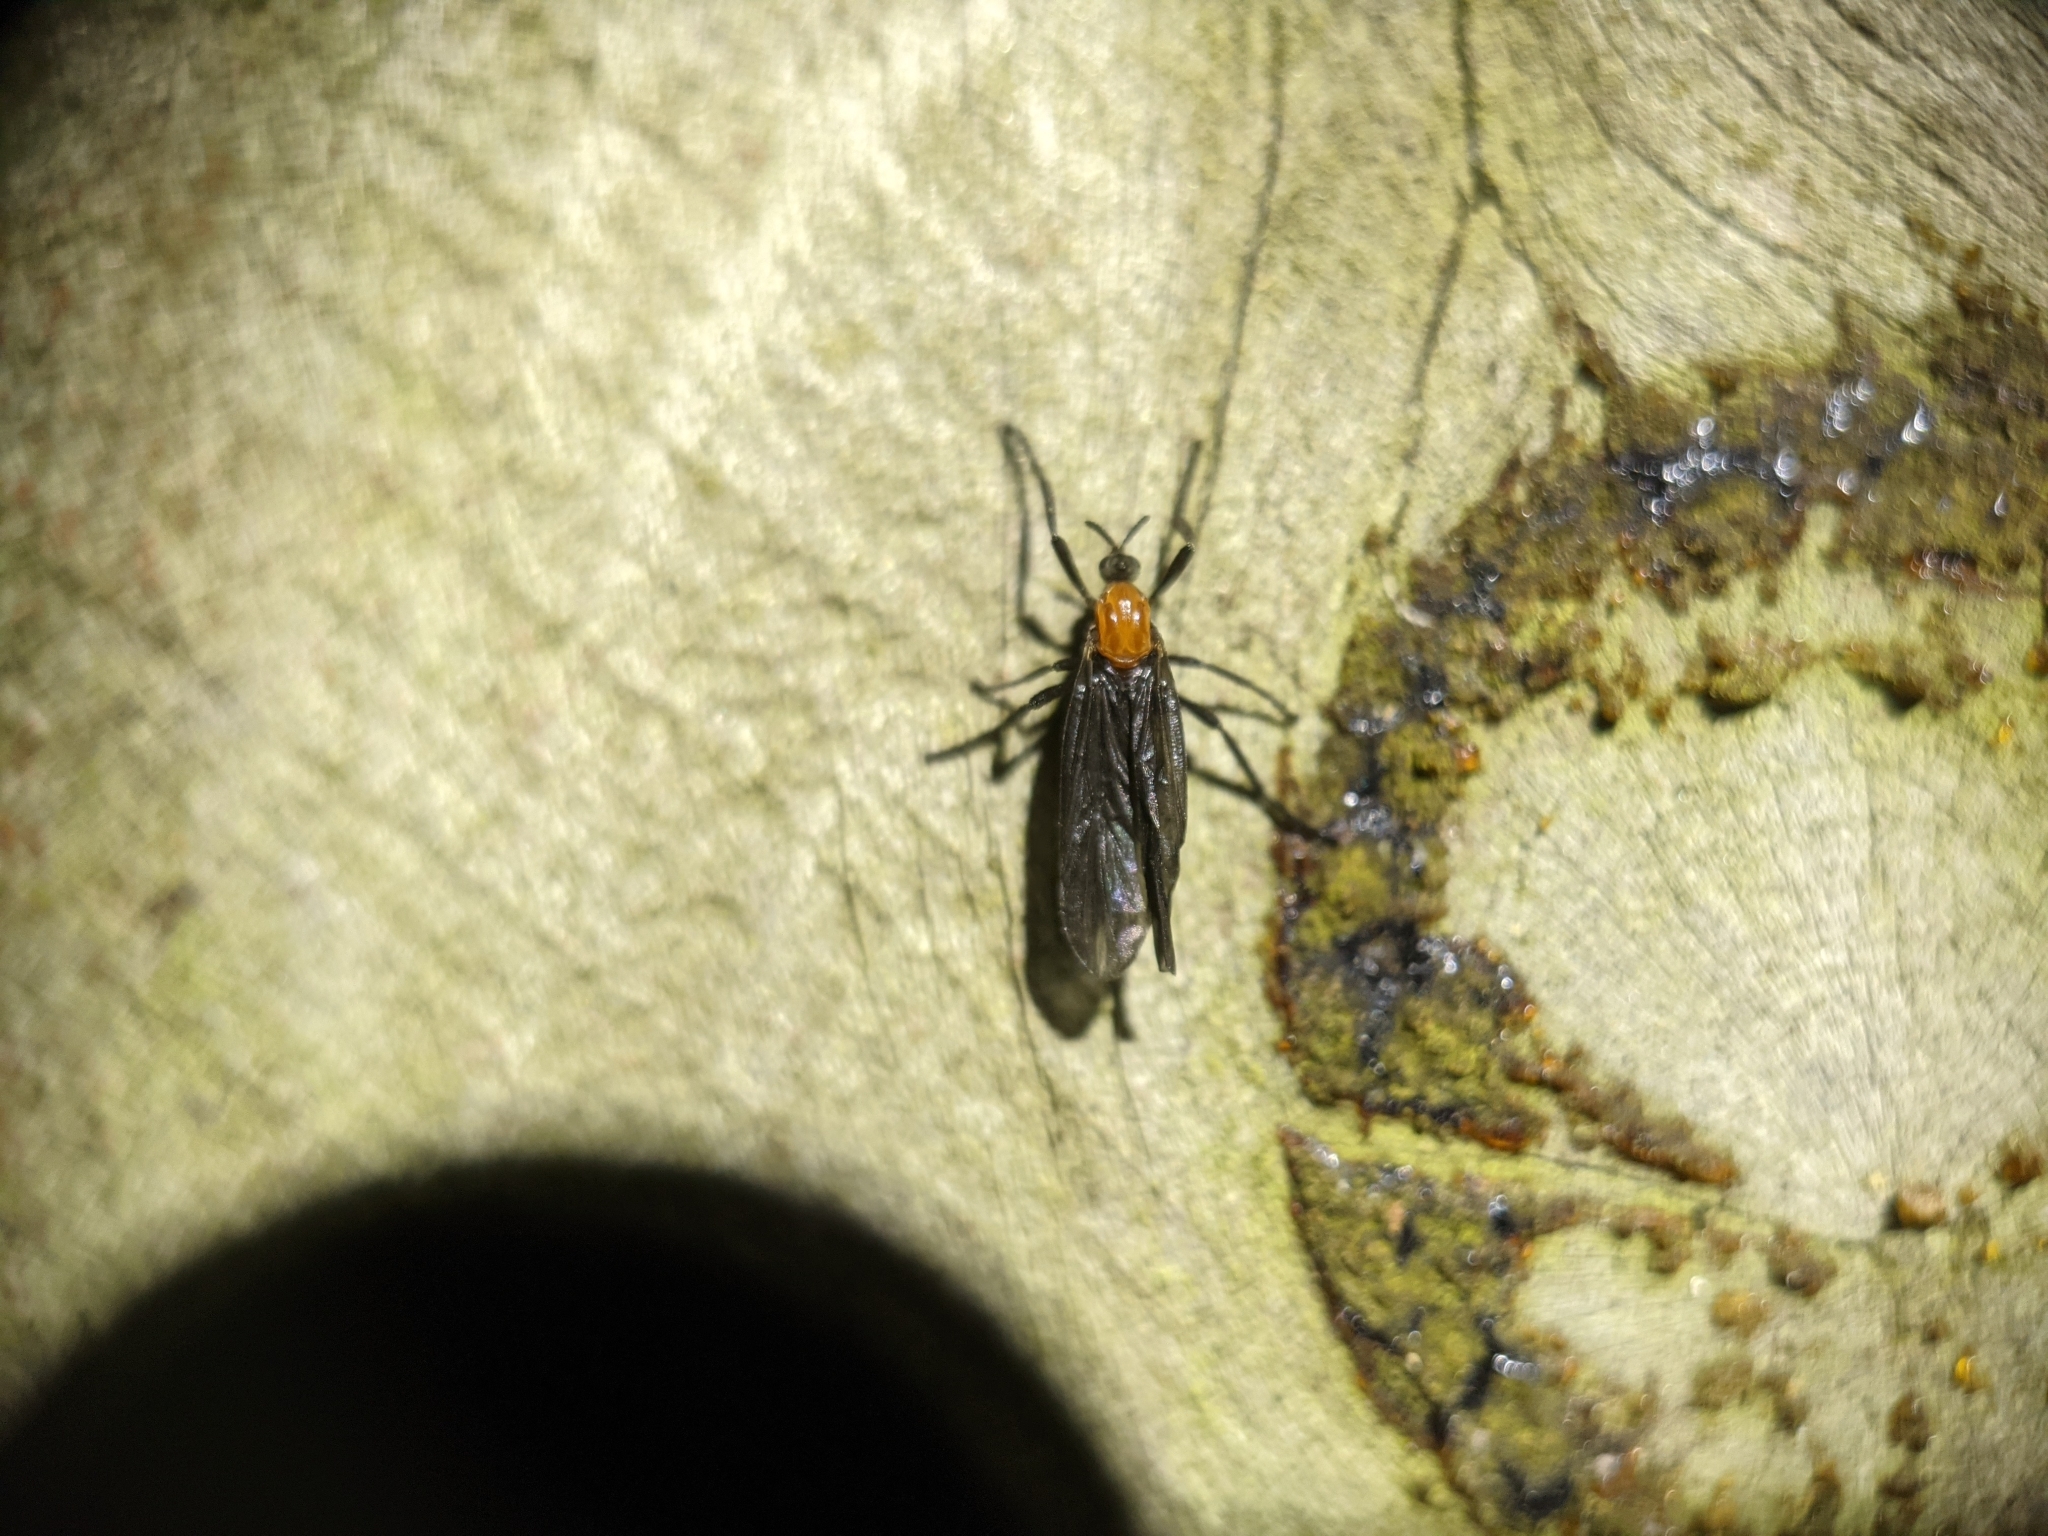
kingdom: Animalia
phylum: Arthropoda
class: Insecta
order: Diptera
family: Bibionidae
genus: Plecia
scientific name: Plecia nearctica
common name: March fly
